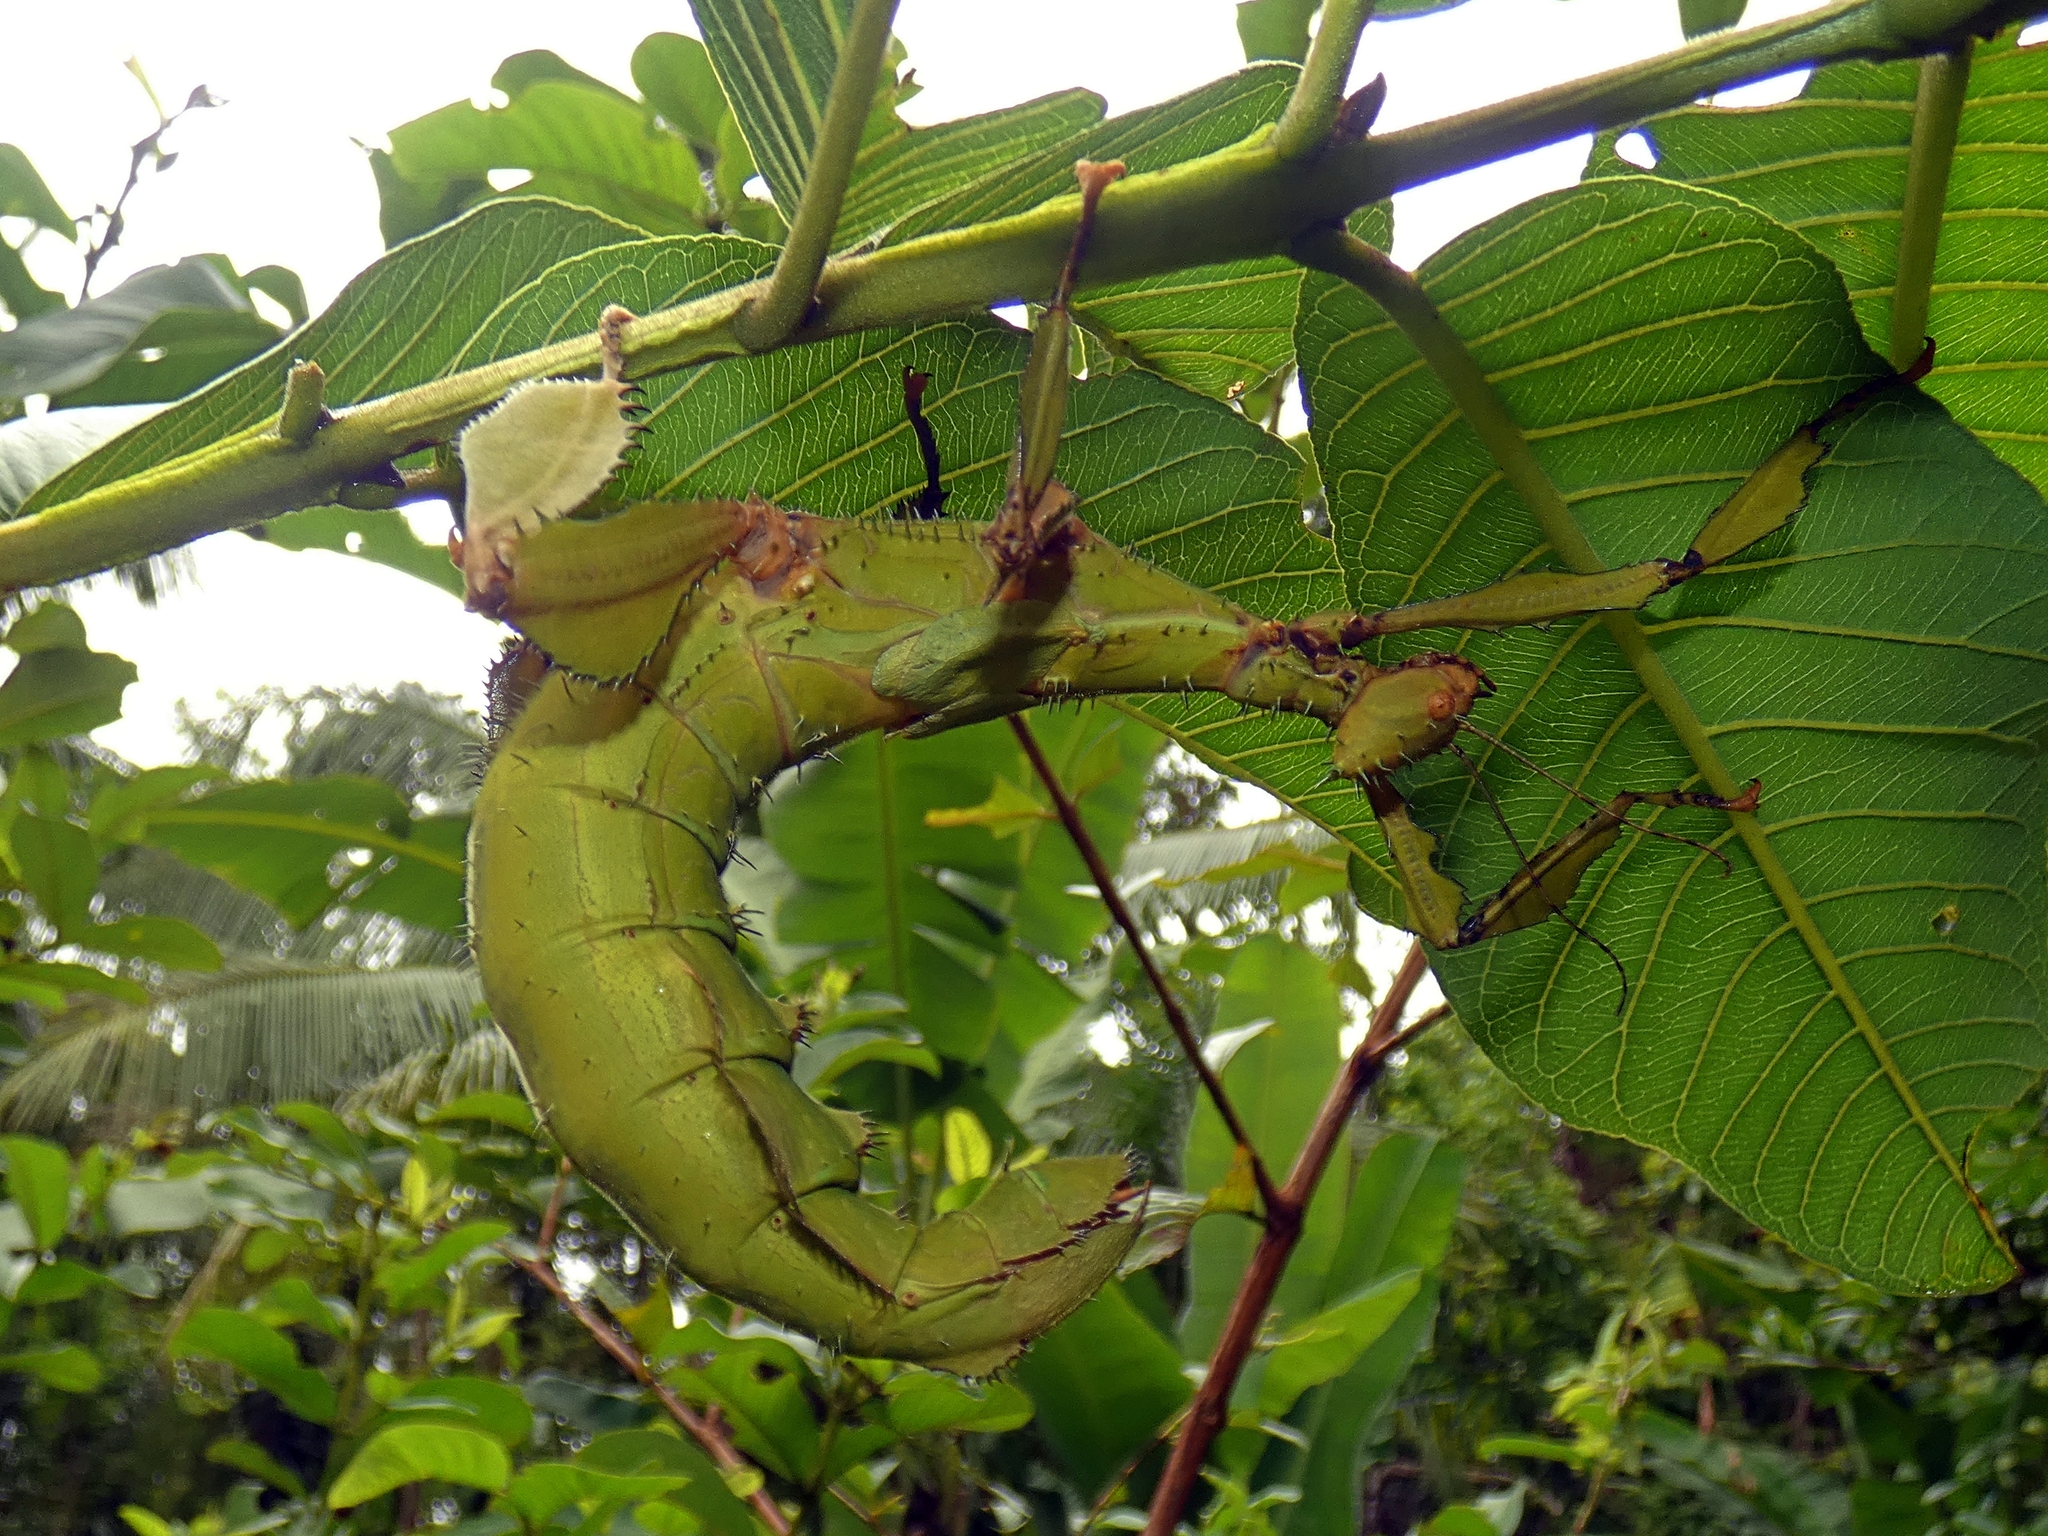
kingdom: Animalia
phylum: Arthropoda
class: Insecta
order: Phasmida
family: Phasmatidae
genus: Extatosoma
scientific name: Extatosoma tiaratum
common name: Macleay's spectre
